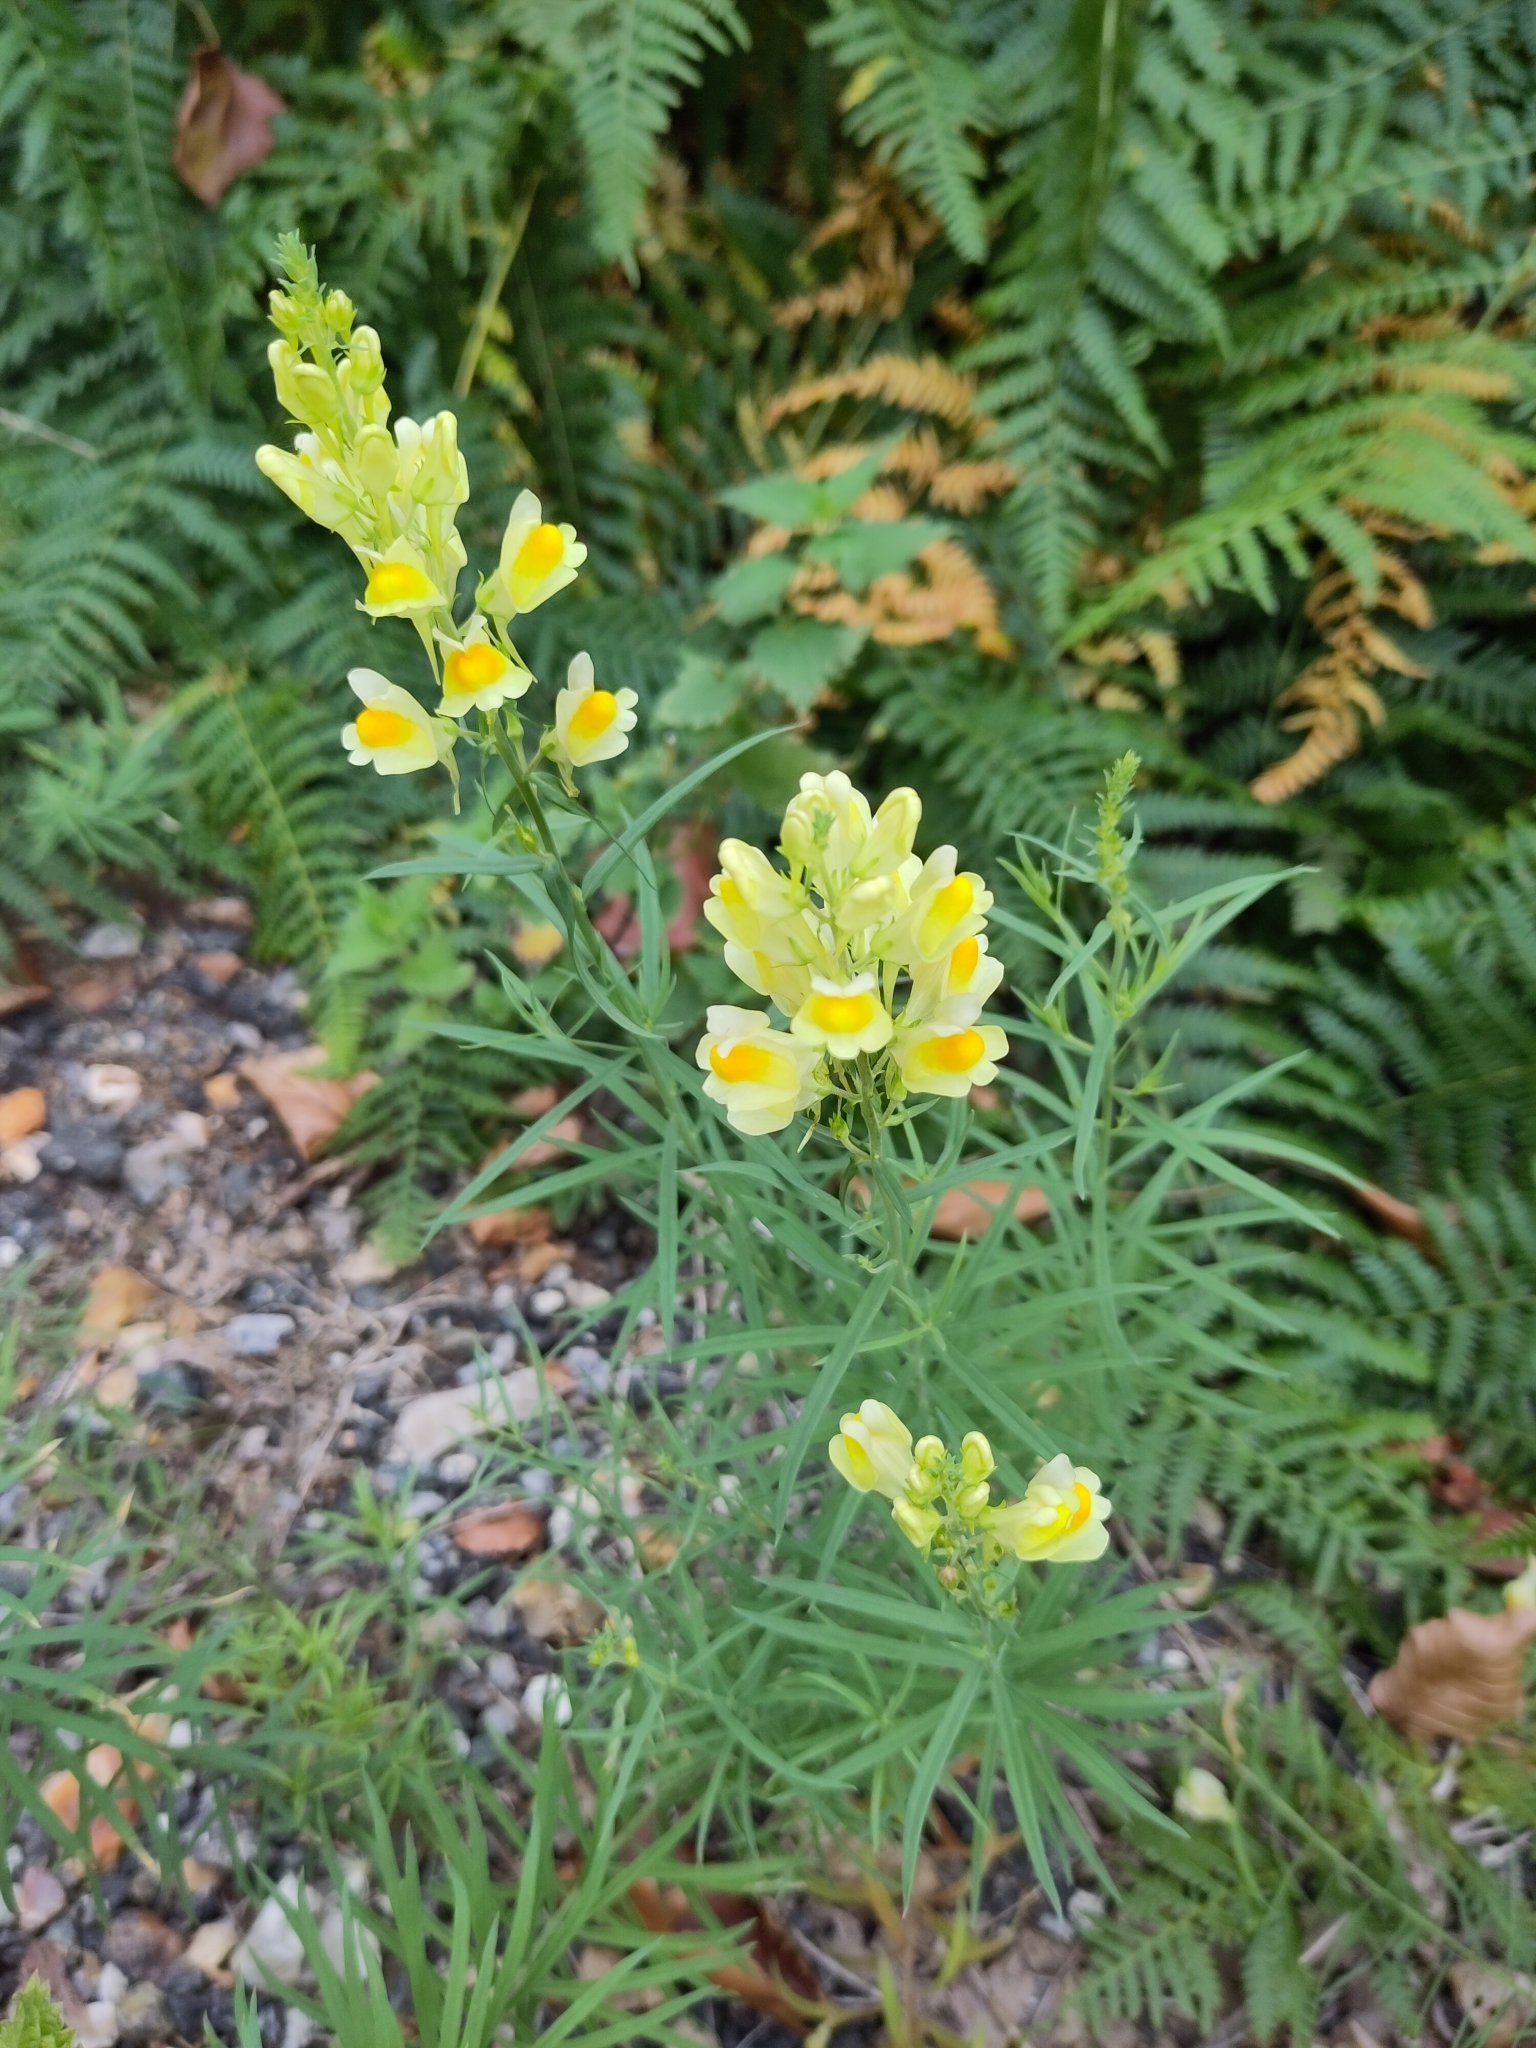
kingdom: Plantae
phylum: Tracheophyta
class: Magnoliopsida
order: Lamiales
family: Plantaginaceae
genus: Linaria
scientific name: Linaria vulgaris
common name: Butter and eggs
